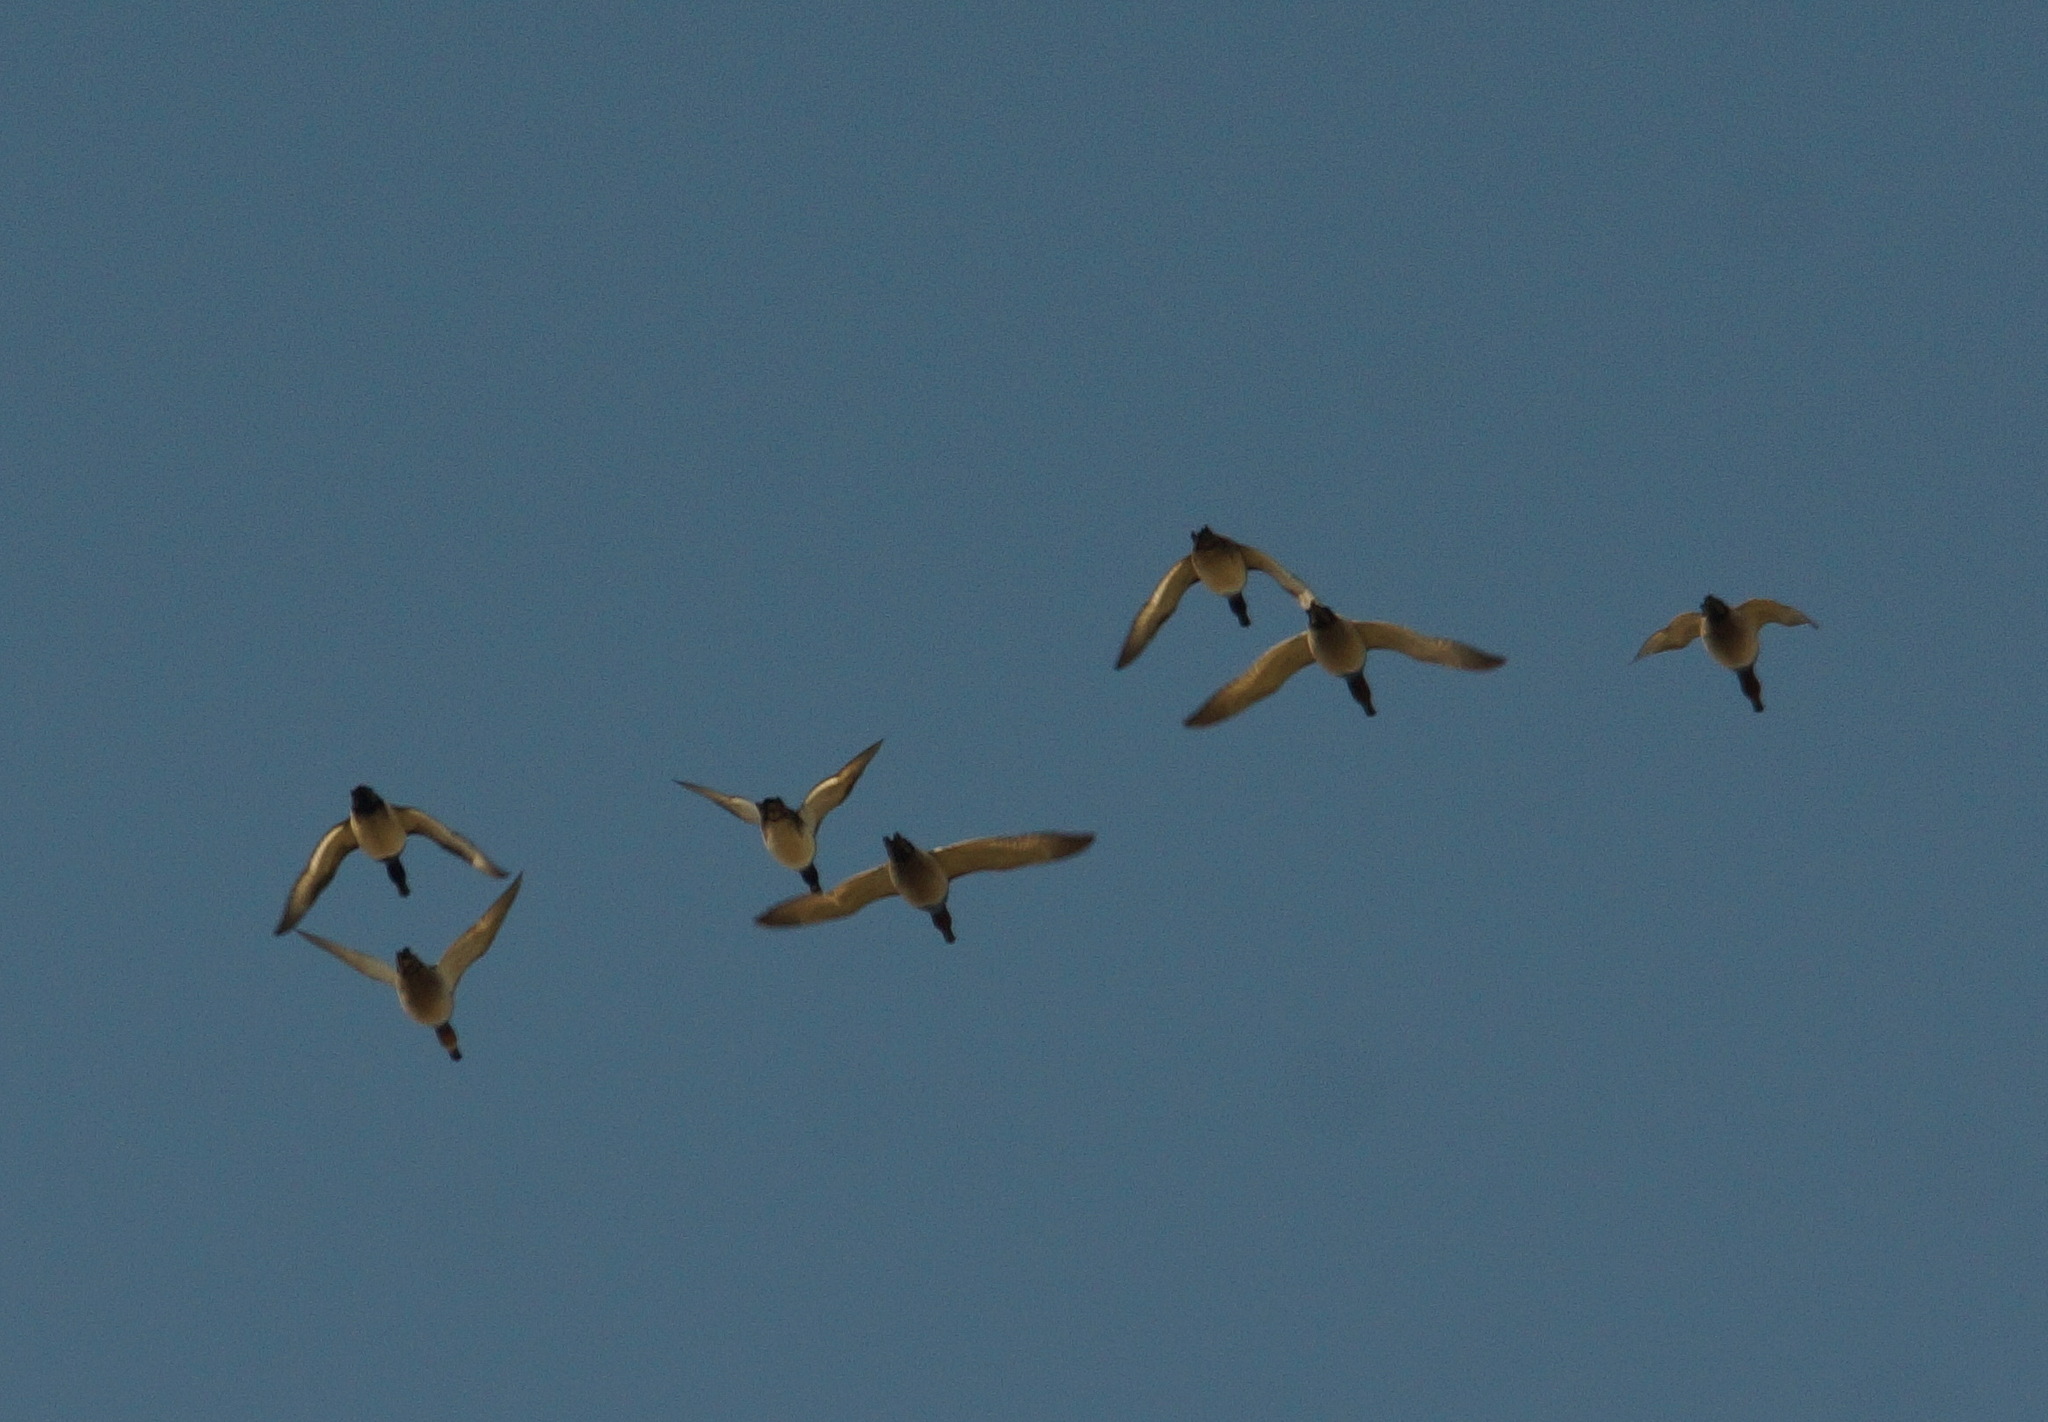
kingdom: Animalia
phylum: Chordata
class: Aves
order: Anseriformes
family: Anatidae
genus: Aythya
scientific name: Aythya ferina
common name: Common pochard
